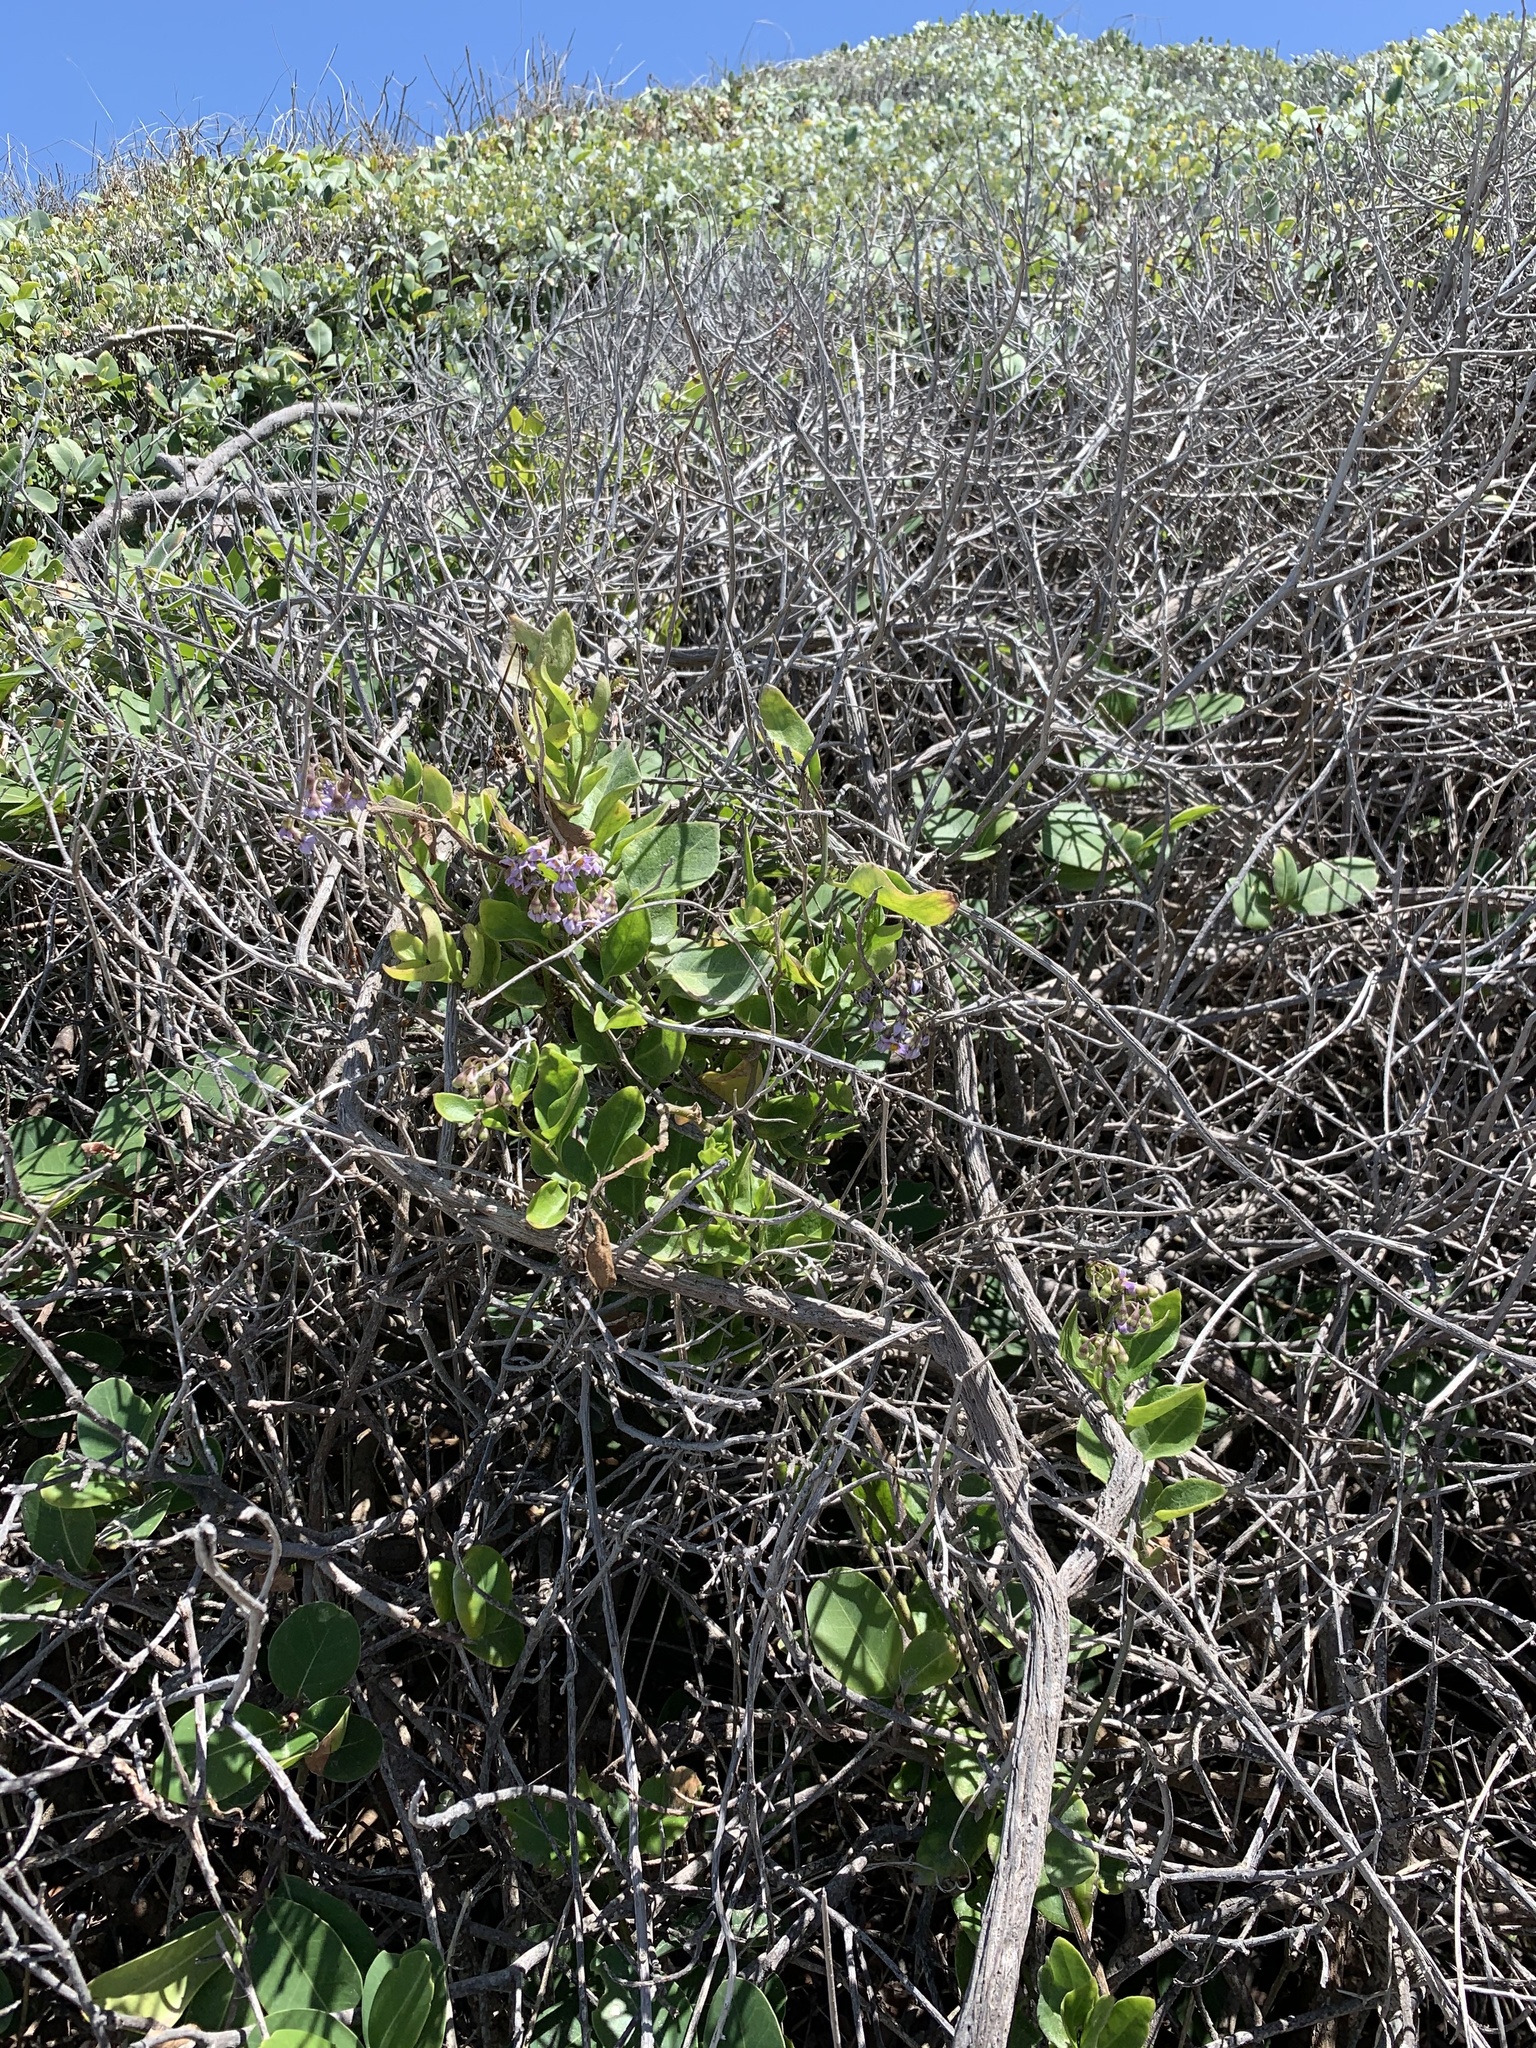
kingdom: Plantae
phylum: Tracheophyta
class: Magnoliopsida
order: Solanales
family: Solanaceae
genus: Solanum
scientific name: Solanum africanum
